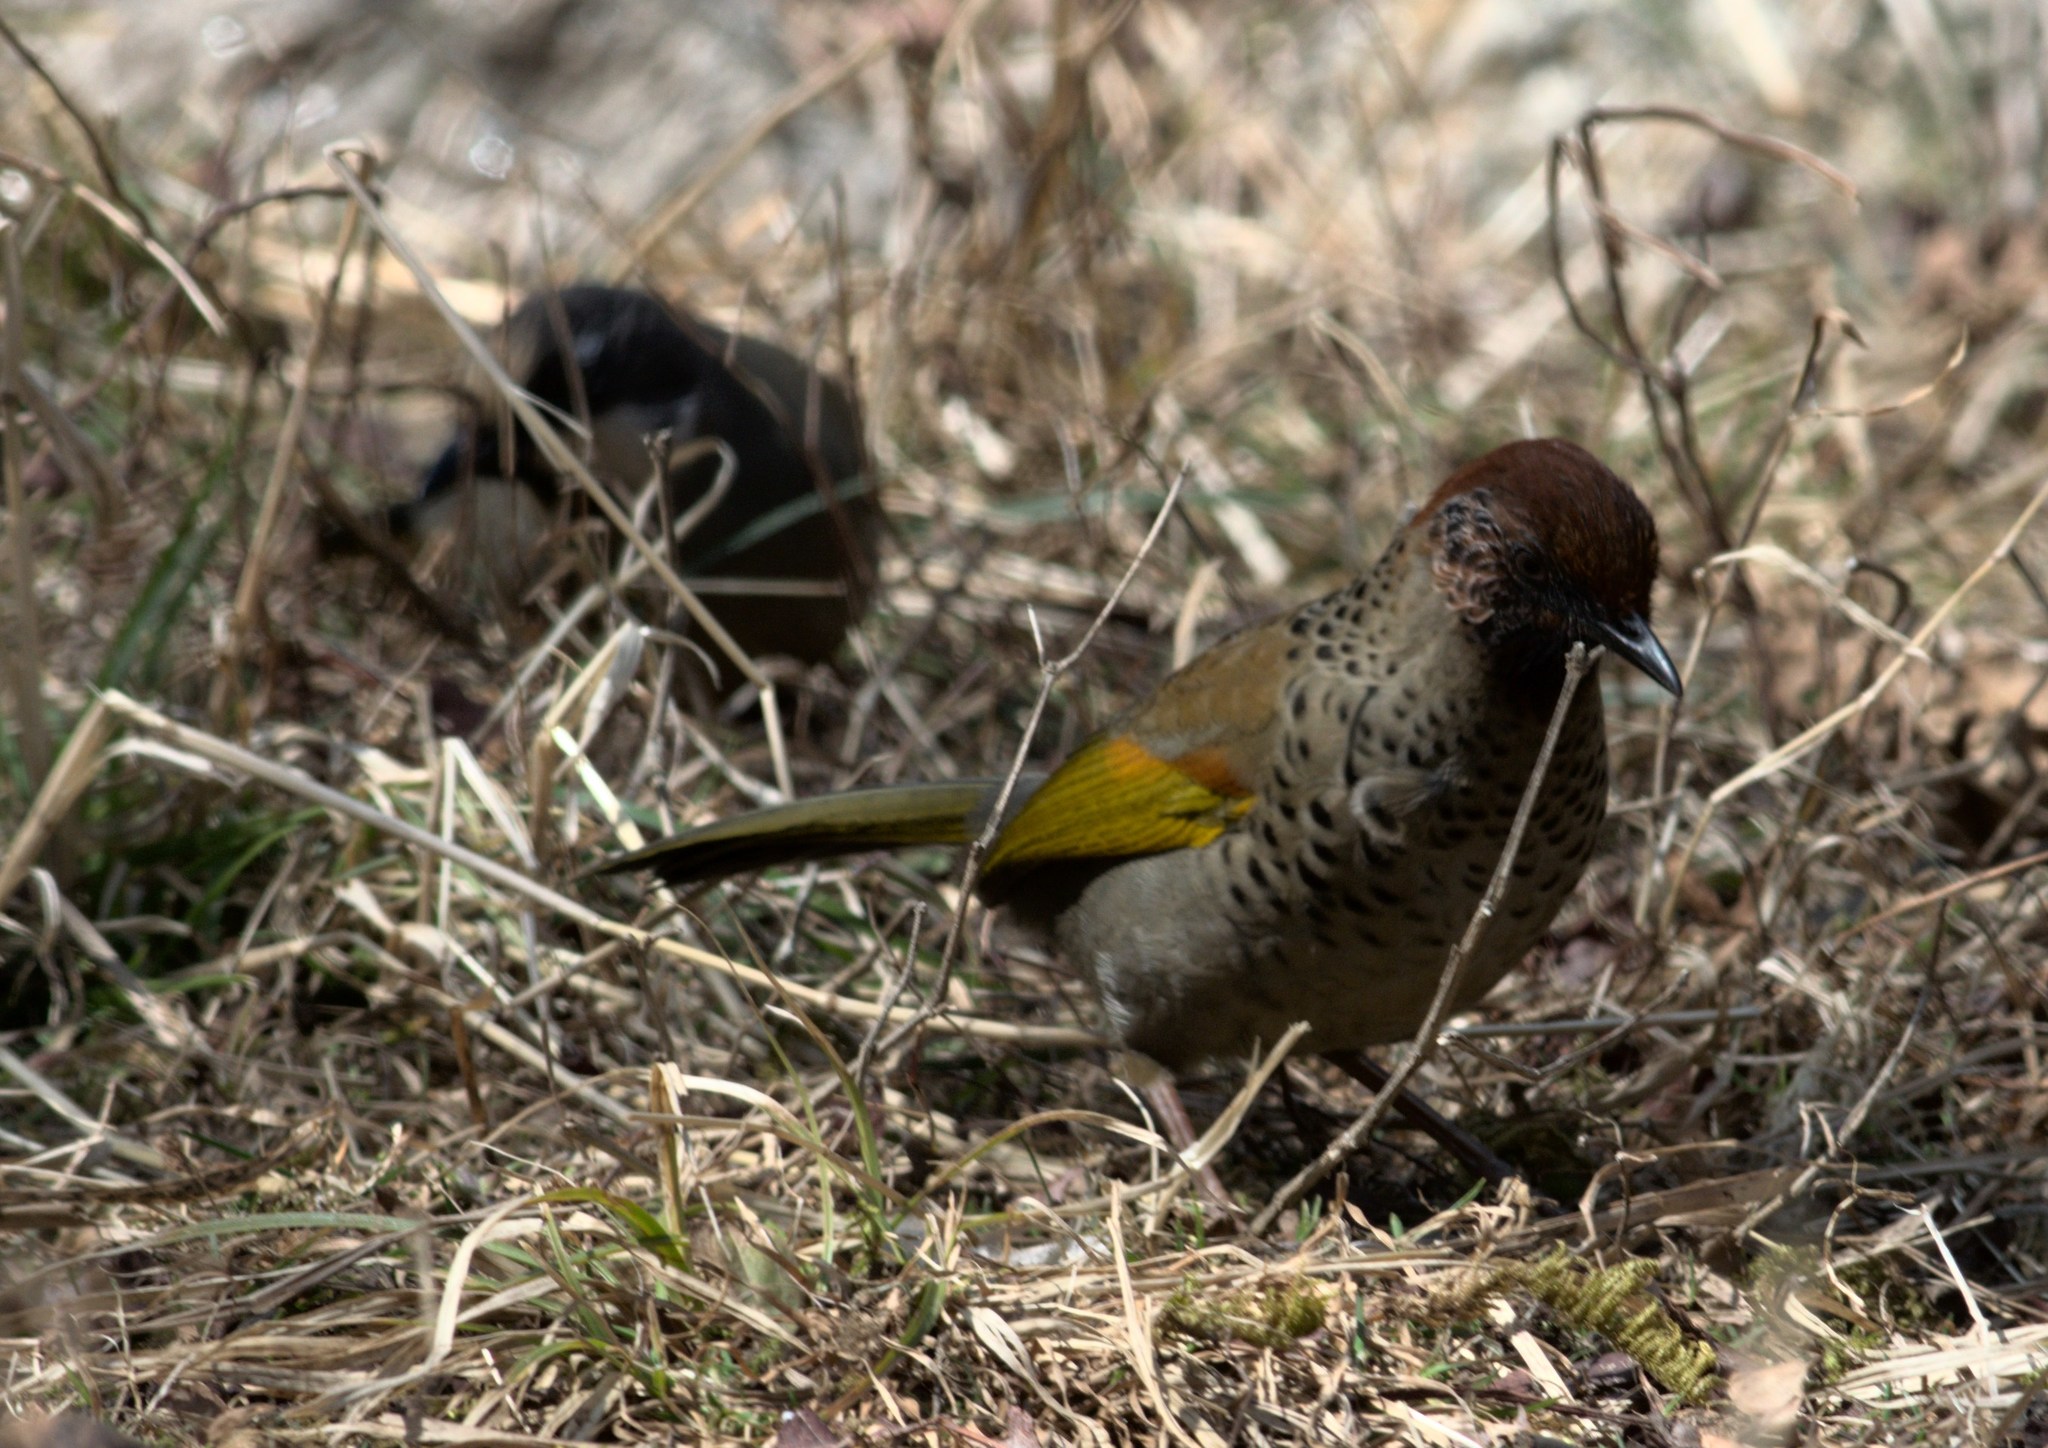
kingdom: Animalia
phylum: Chordata
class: Aves
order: Passeriformes
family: Leiothrichidae
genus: Trochalopteron
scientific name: Trochalopteron erythrocephalum
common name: Chestnut-crowned laughingthrush
